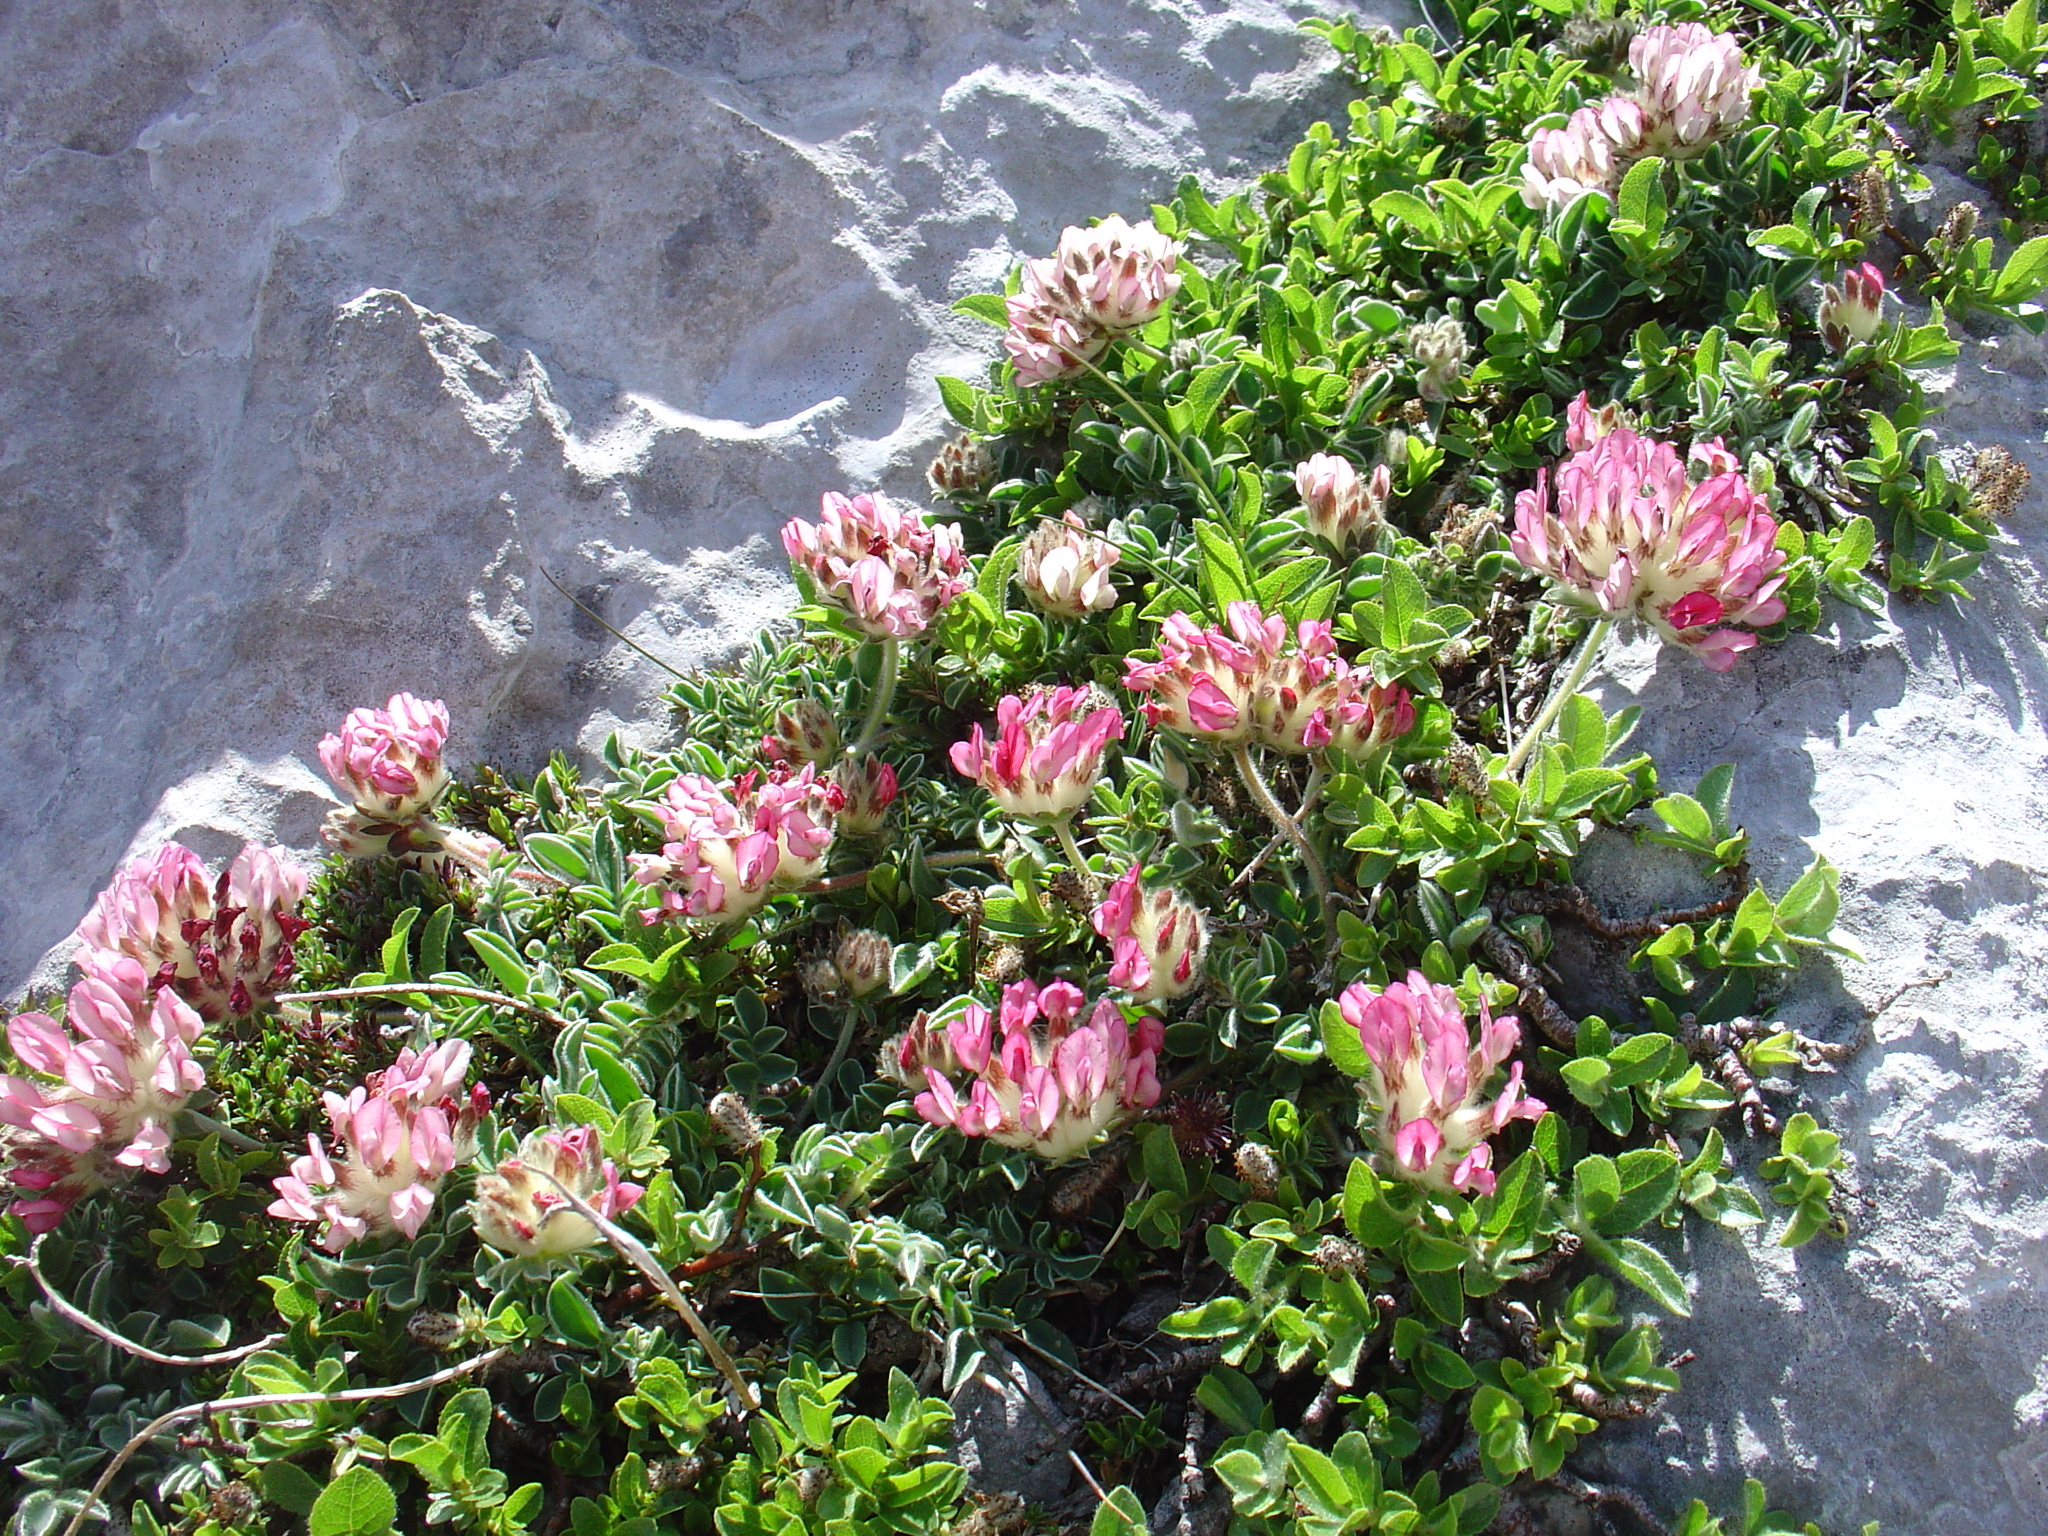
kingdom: Plantae
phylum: Tracheophyta
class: Magnoliopsida
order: Fabales
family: Fabaceae
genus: Anthyllis
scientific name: Anthyllis vulneraria
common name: Kidney vetch
